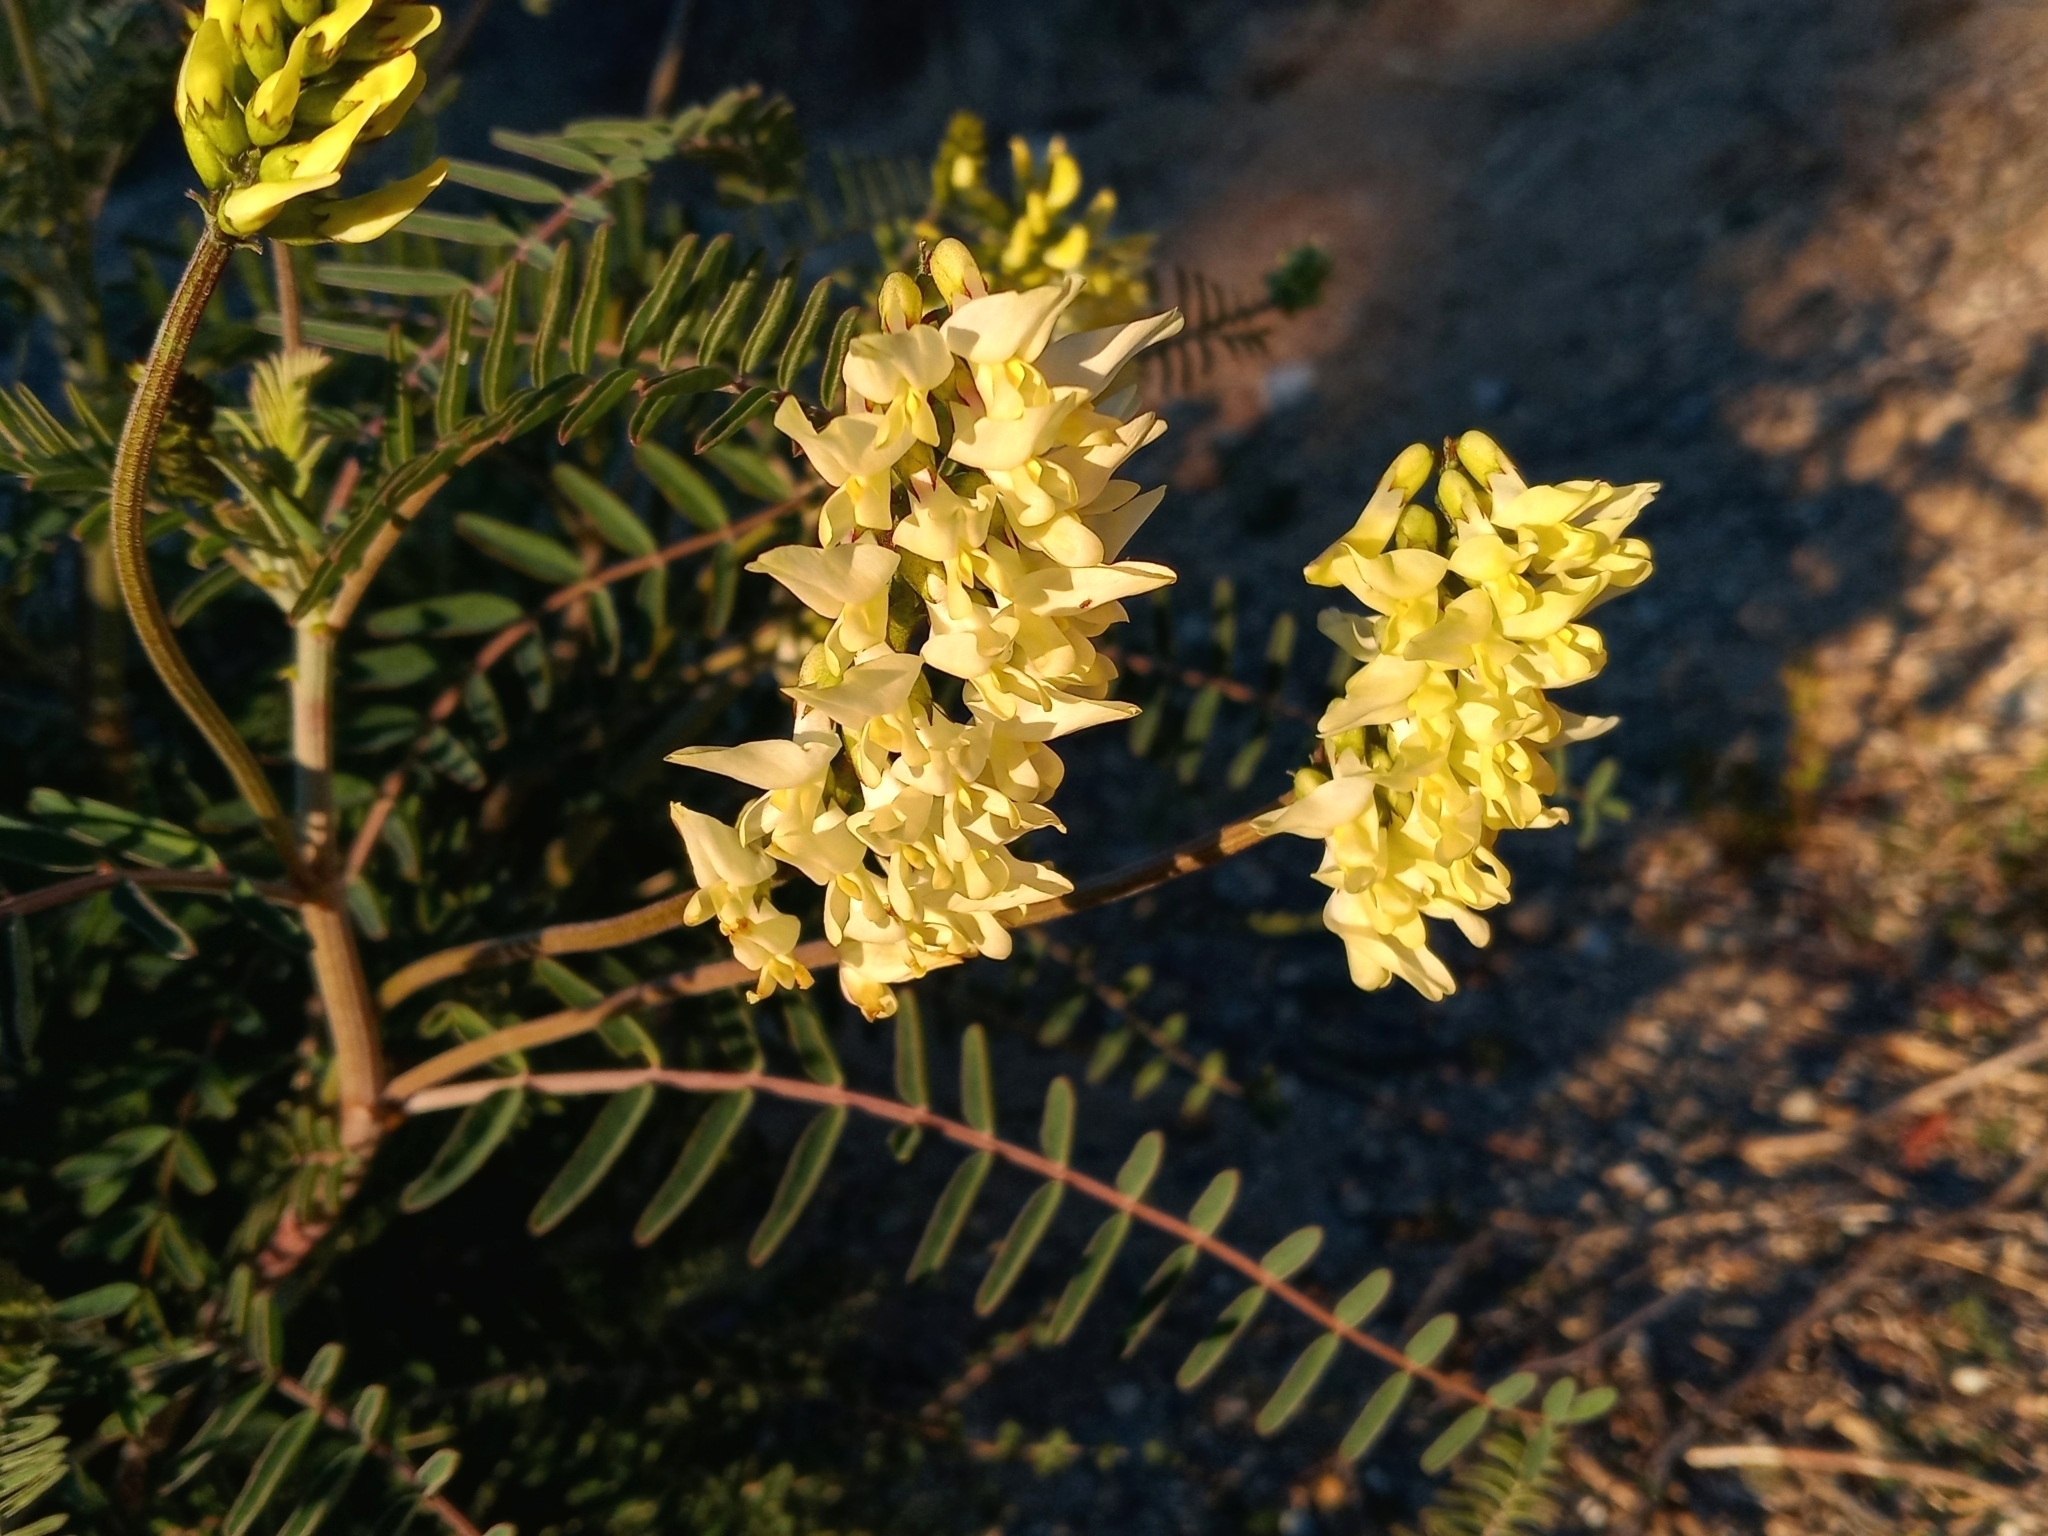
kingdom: Plantae
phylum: Tracheophyta
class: Magnoliopsida
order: Fabales
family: Fabaceae
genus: Astragalus
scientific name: Astragalus trichopodus
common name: Santa barbara milk-vetch
